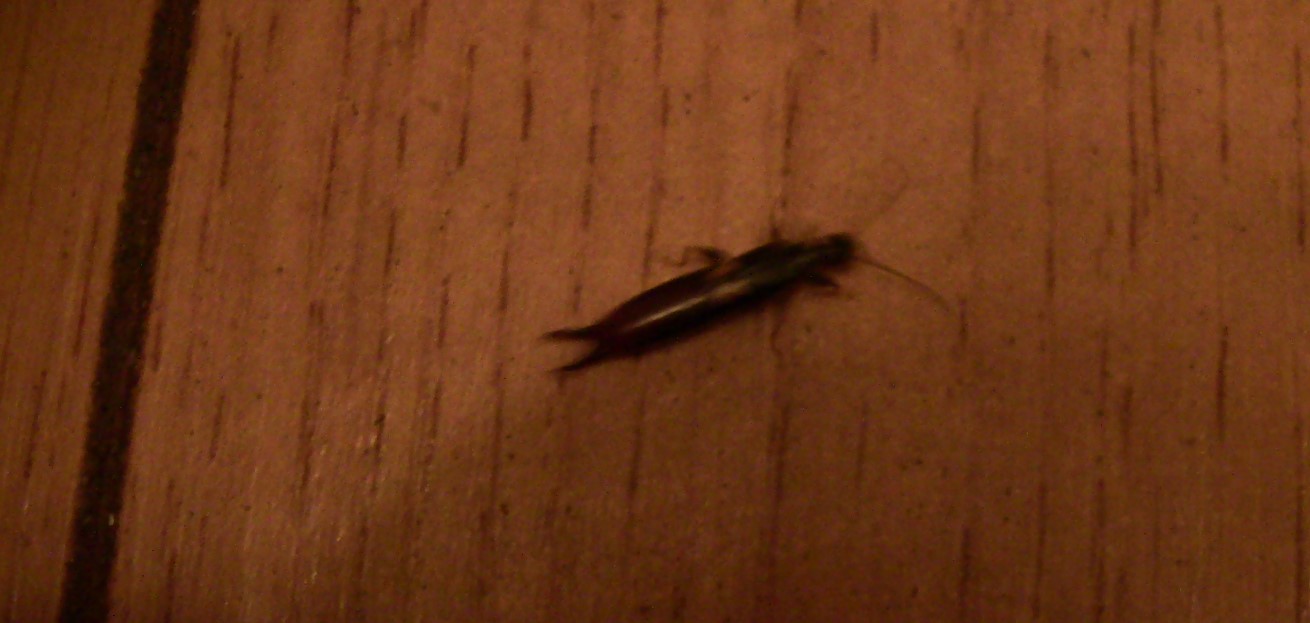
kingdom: Animalia
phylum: Arthropoda
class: Insecta
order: Dermaptera
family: Forficulidae
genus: Forficula
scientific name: Forficula
